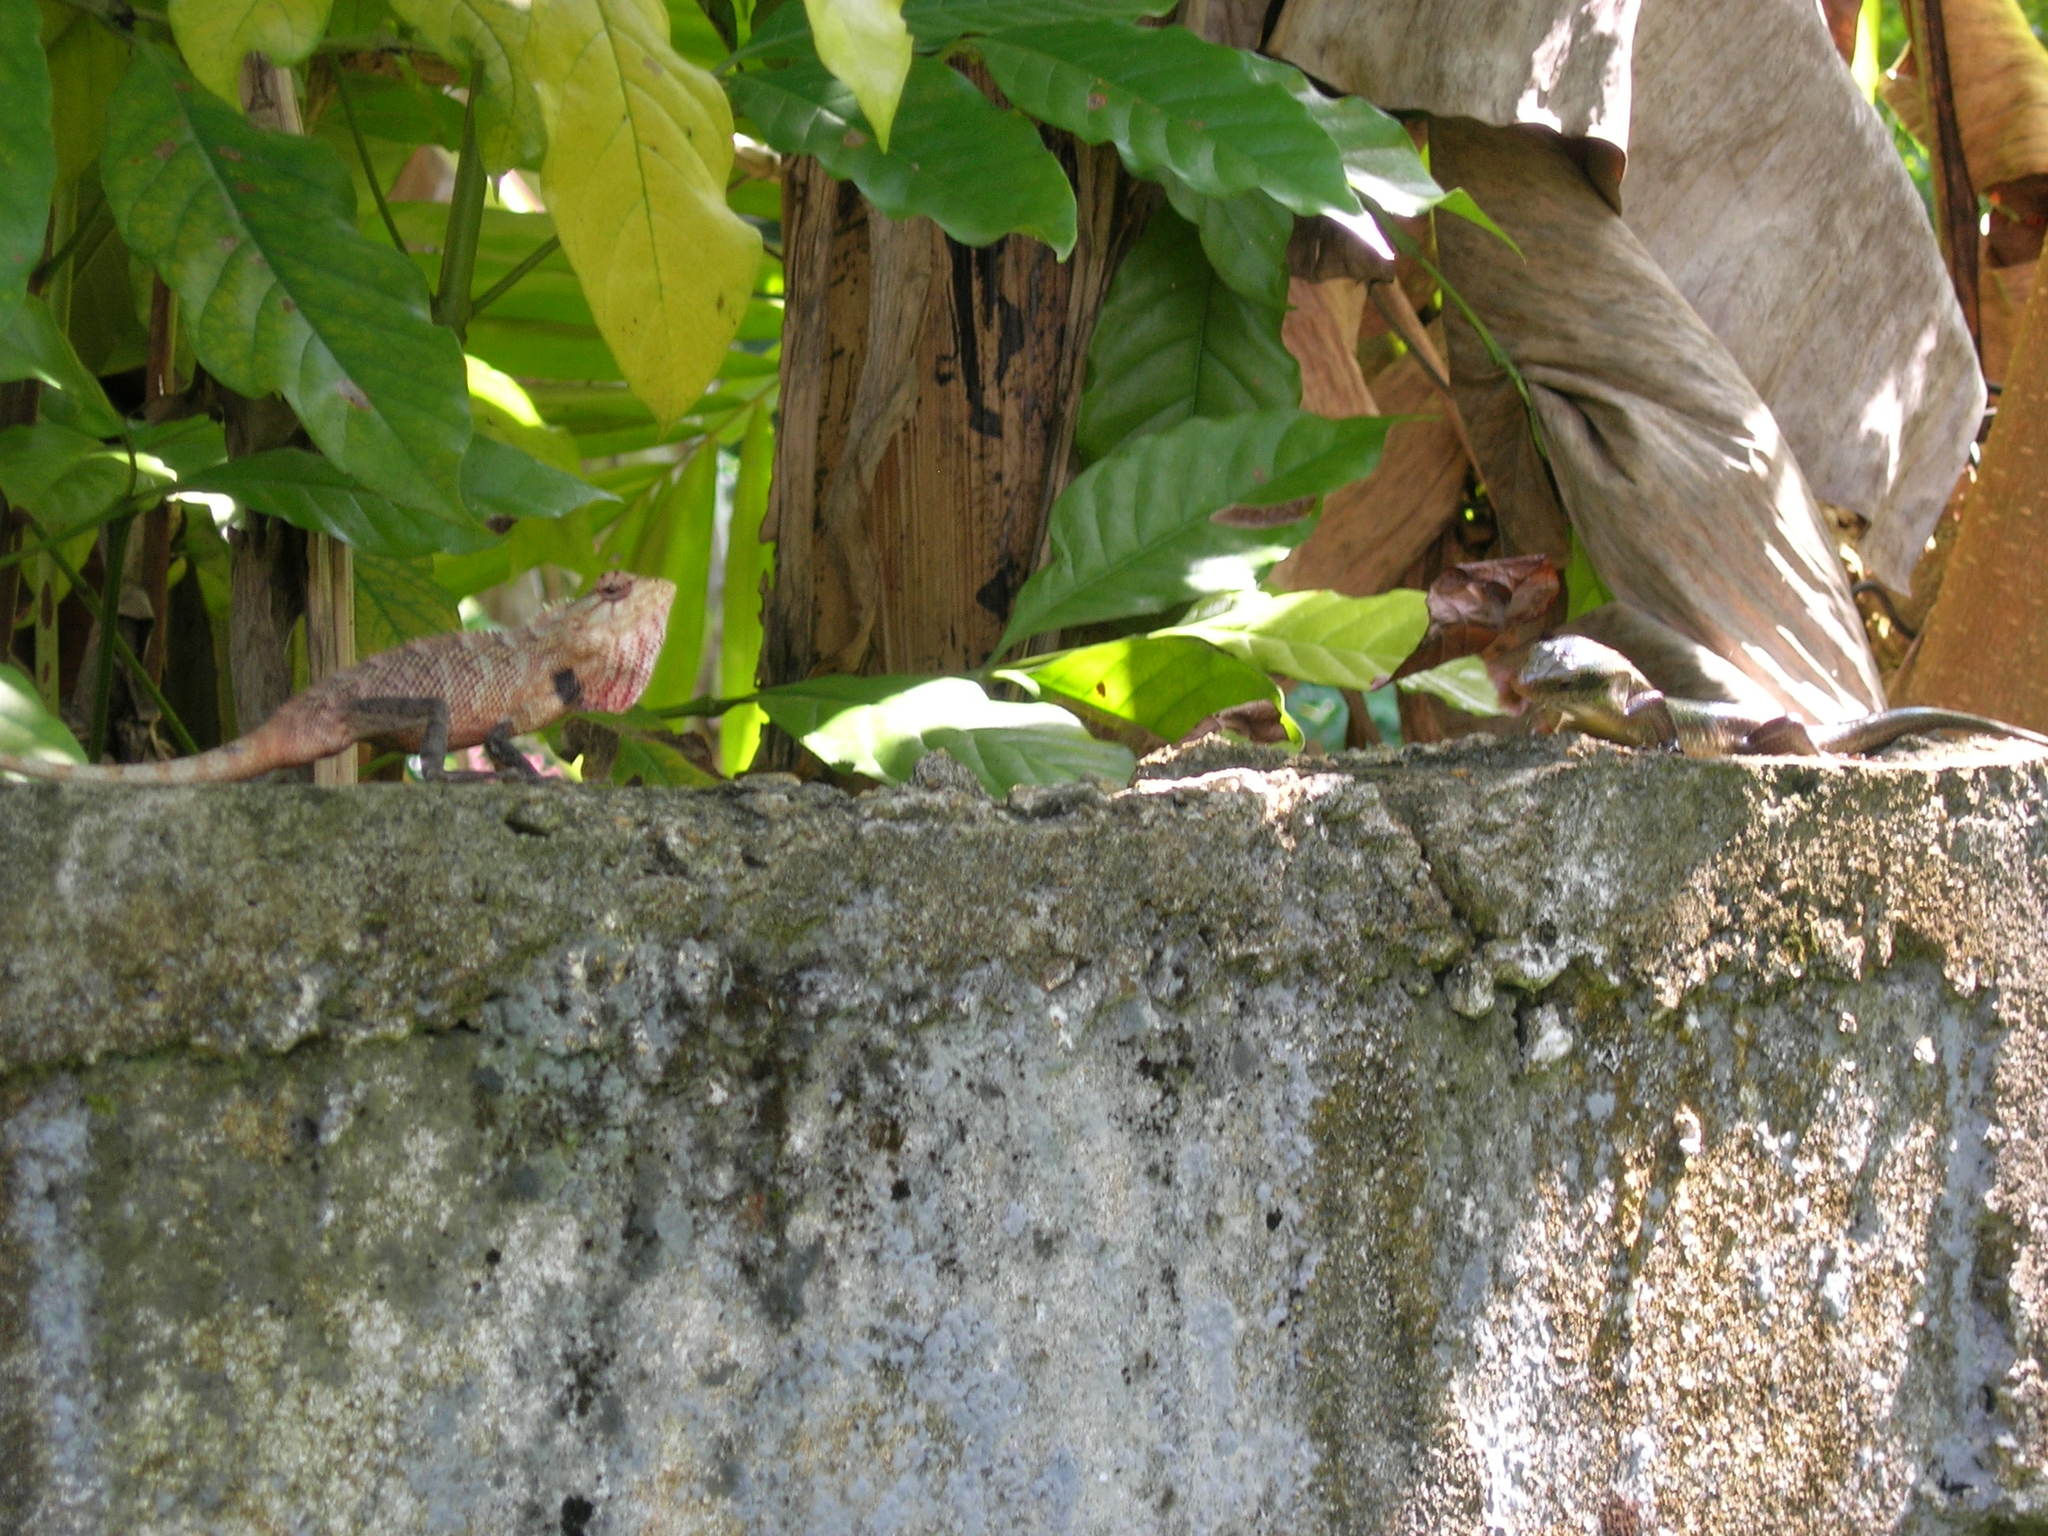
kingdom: Animalia
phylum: Chordata
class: Squamata
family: Agamidae
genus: Calotes
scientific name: Calotes versicolor
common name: Oriental garden lizard
